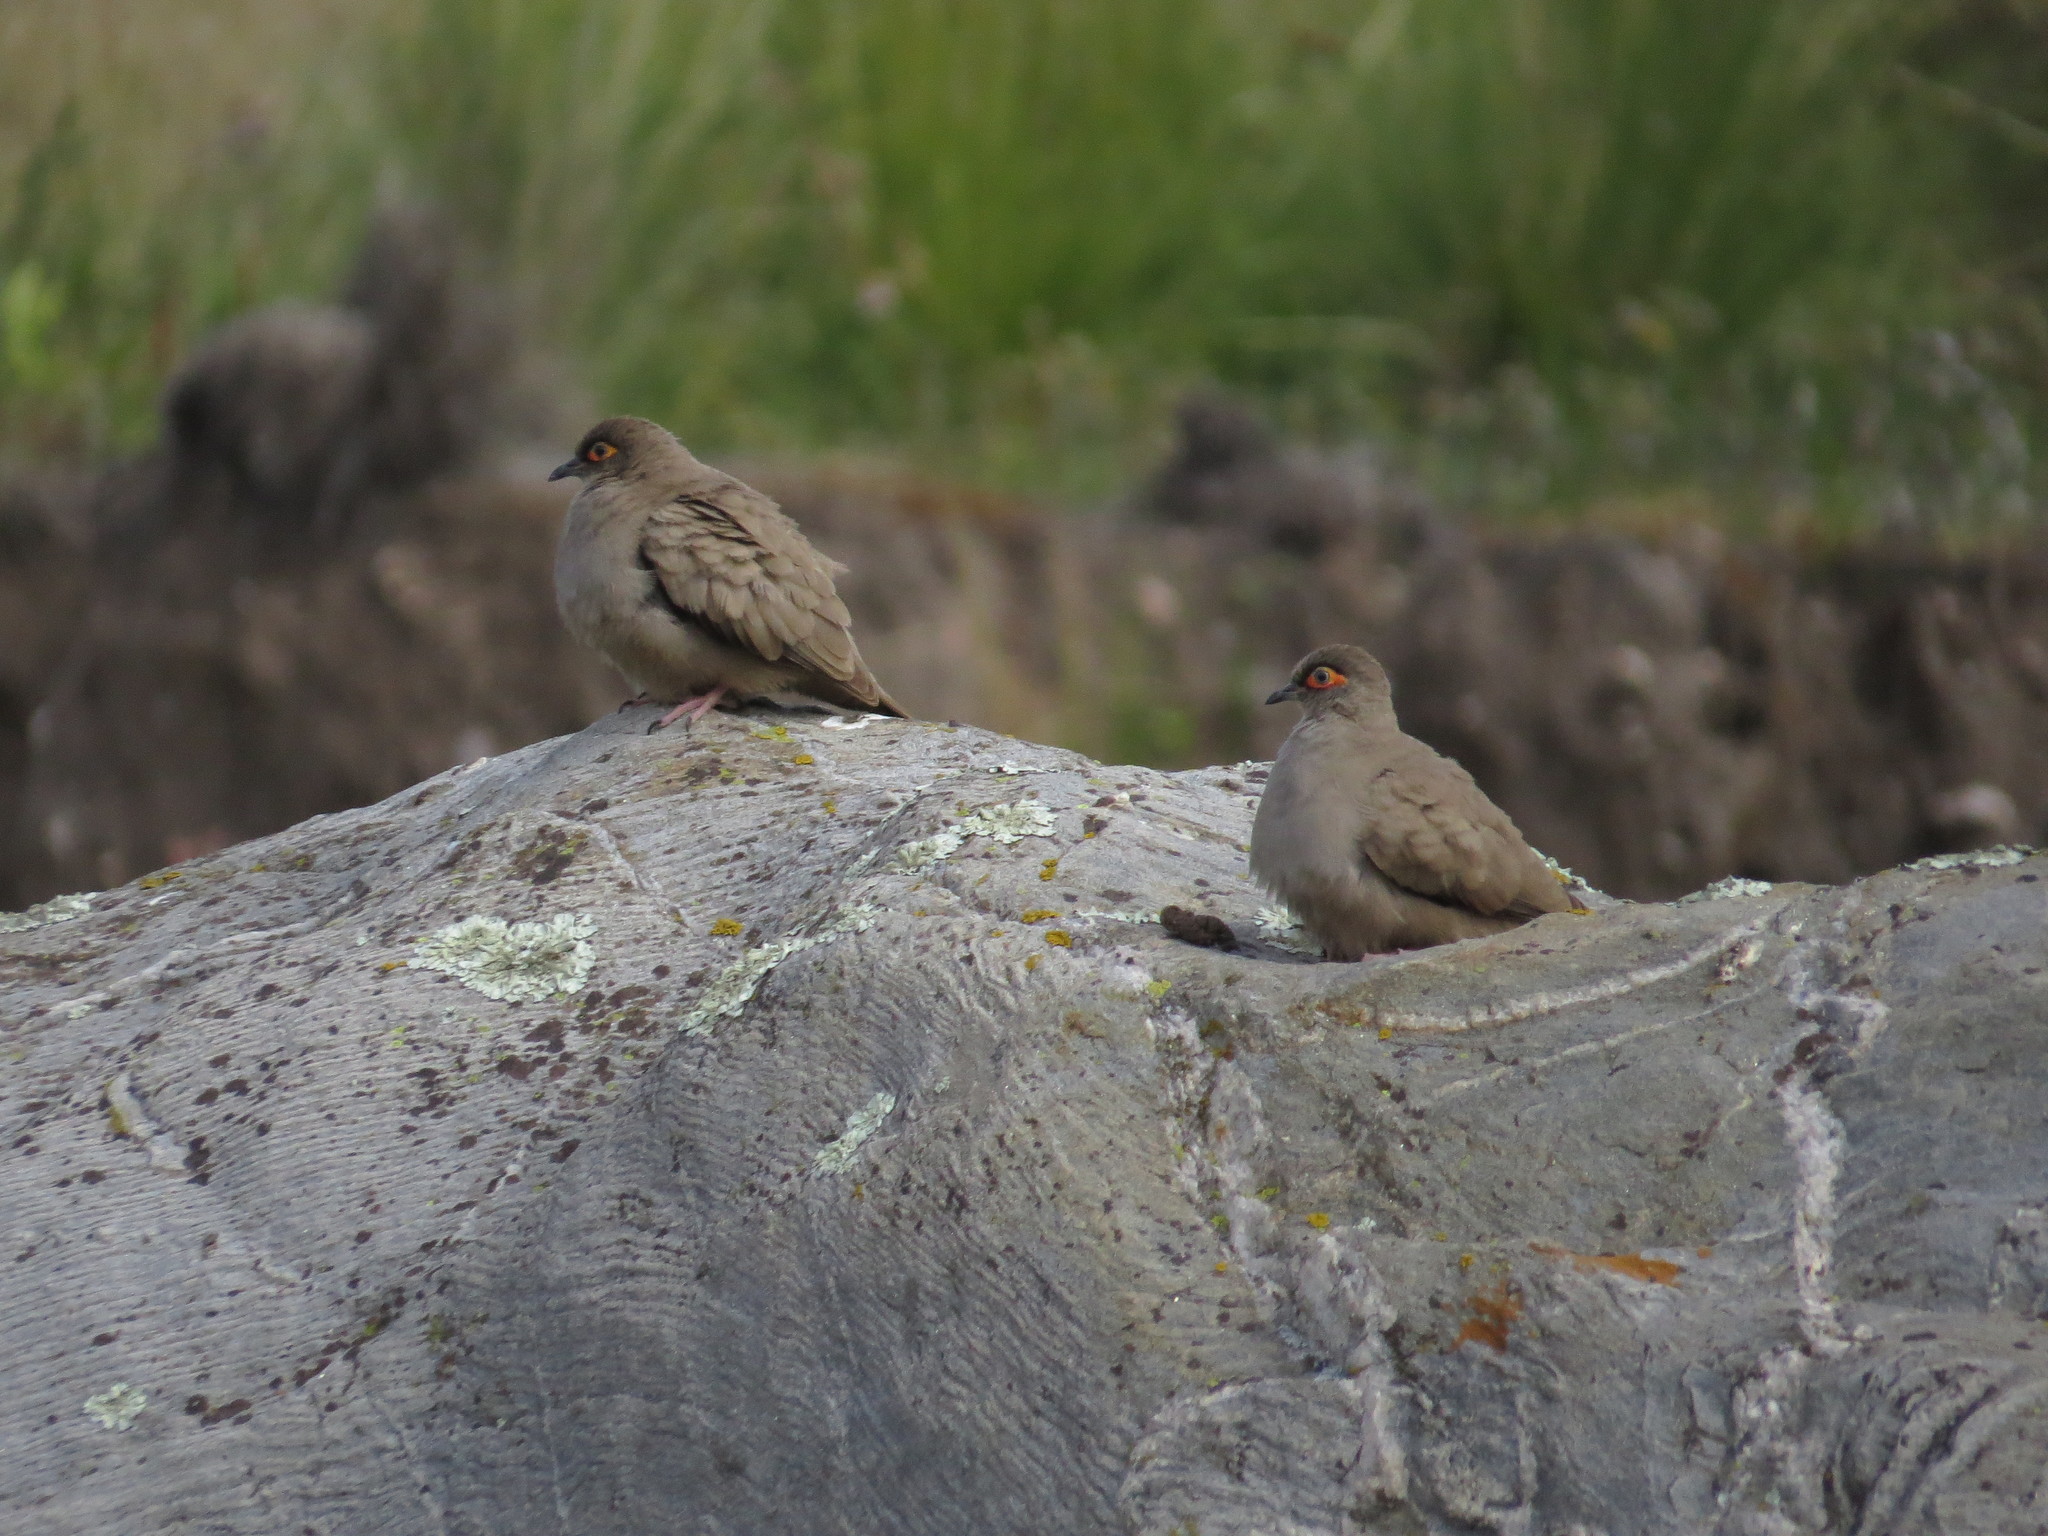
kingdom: Animalia
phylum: Chordata
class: Aves
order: Columbiformes
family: Columbidae
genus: Metriopelia
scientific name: Metriopelia morenoi
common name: Moreno's ground dove
